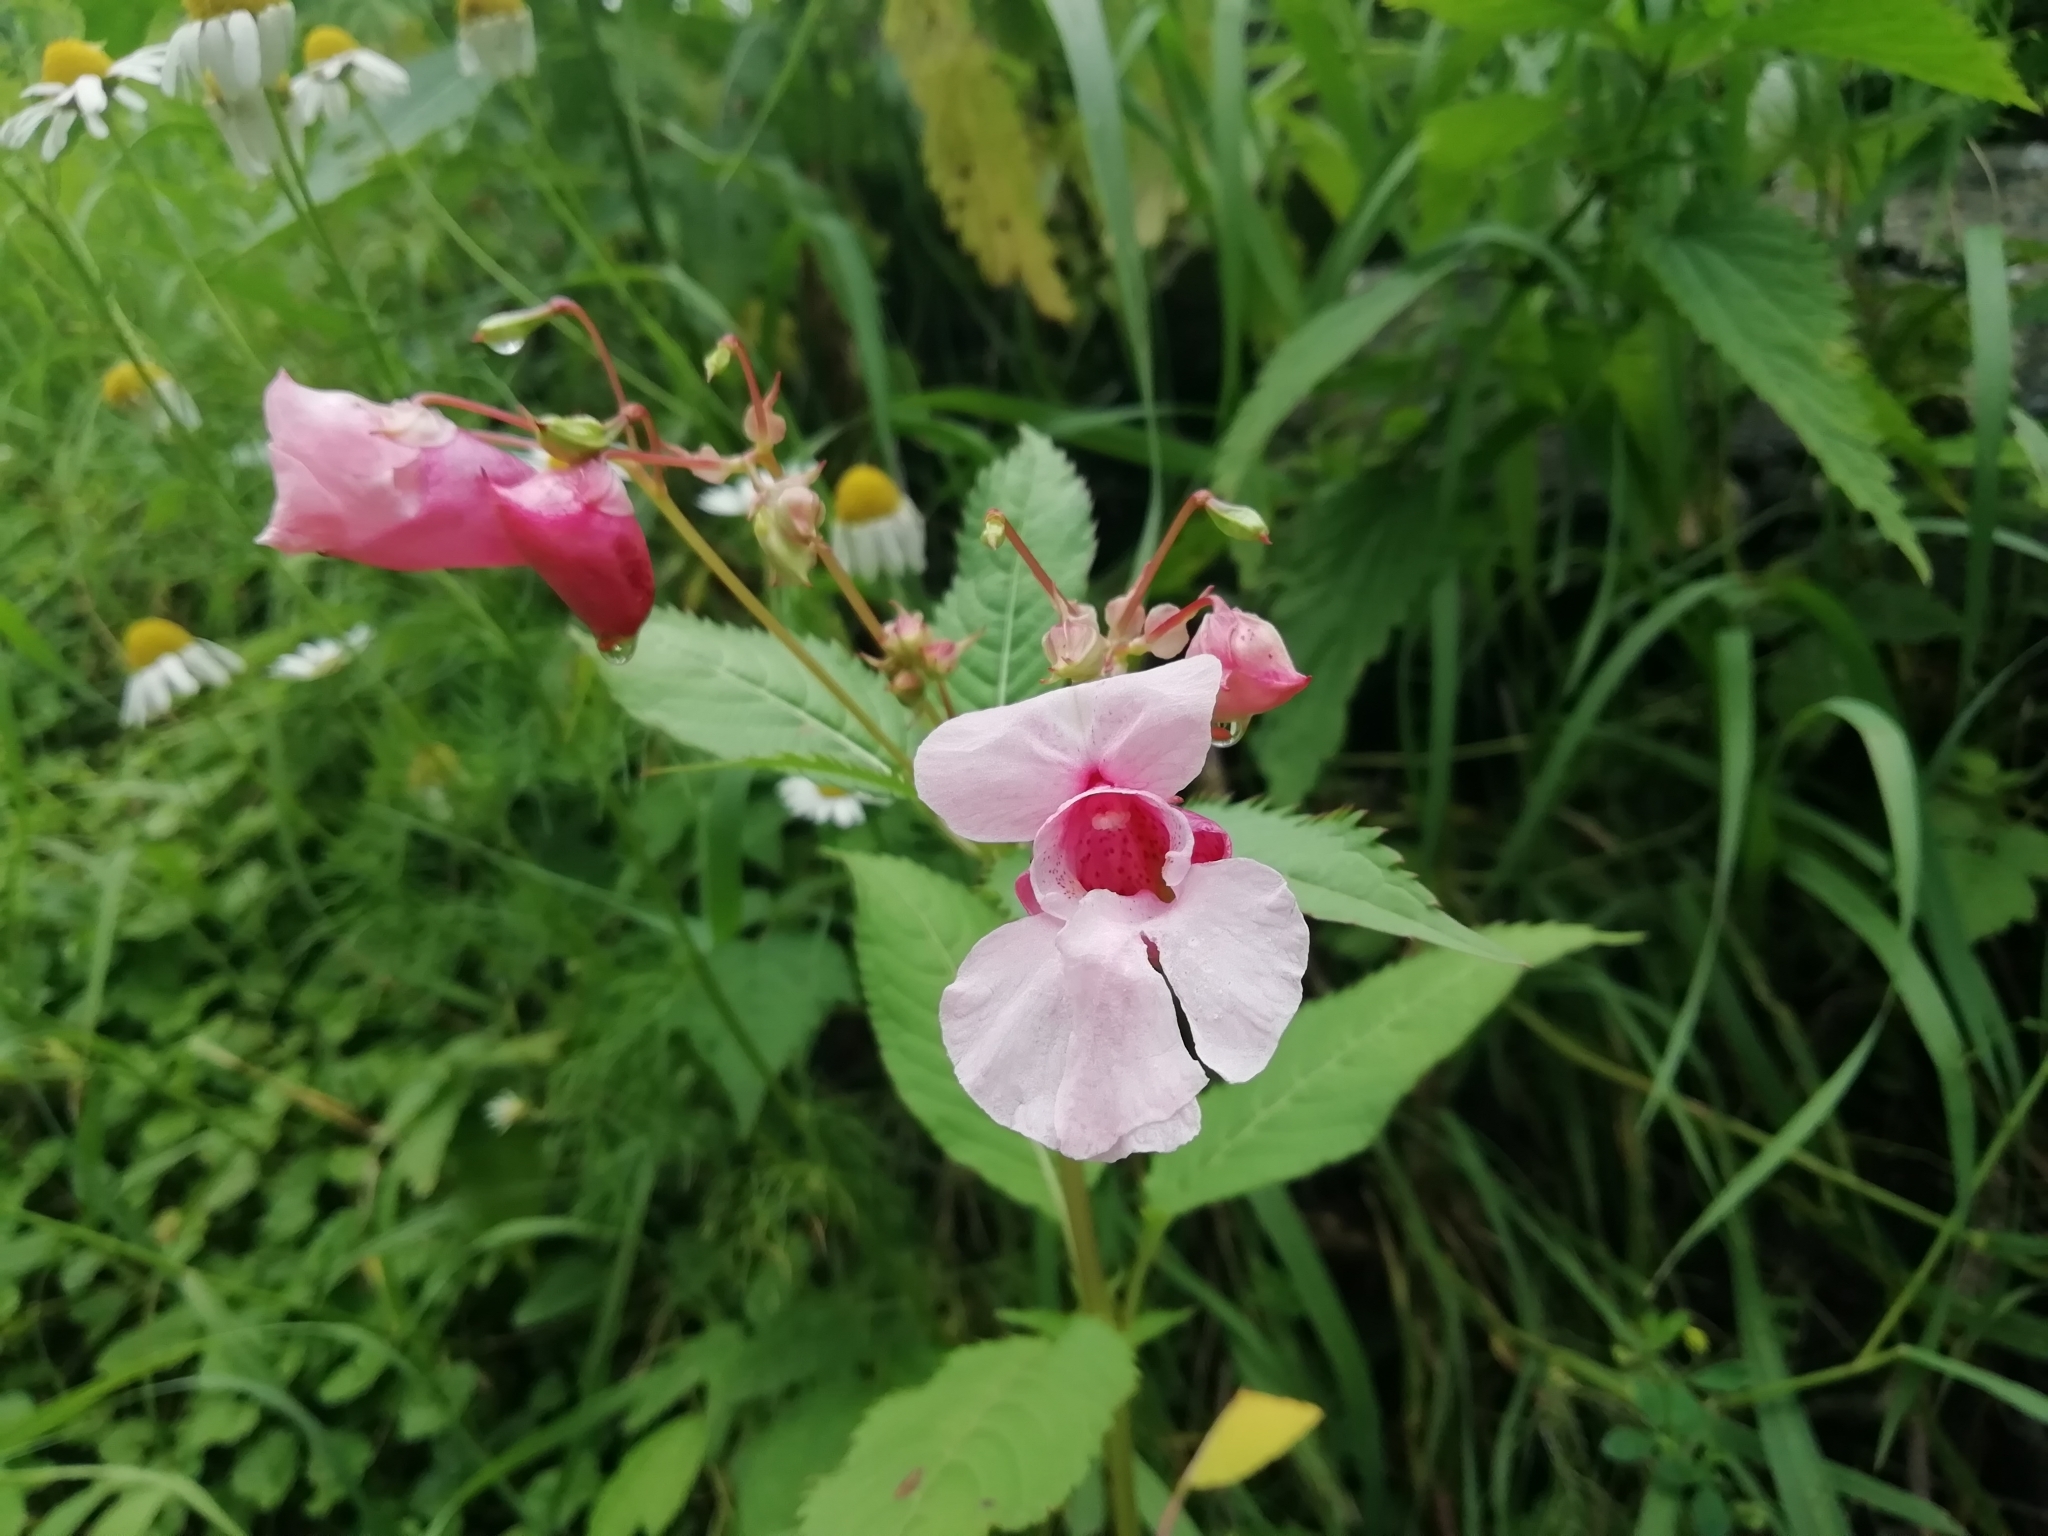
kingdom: Plantae
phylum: Tracheophyta
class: Magnoliopsida
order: Ericales
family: Balsaminaceae
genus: Impatiens
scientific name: Impatiens glandulifera
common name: Himalayan balsam
